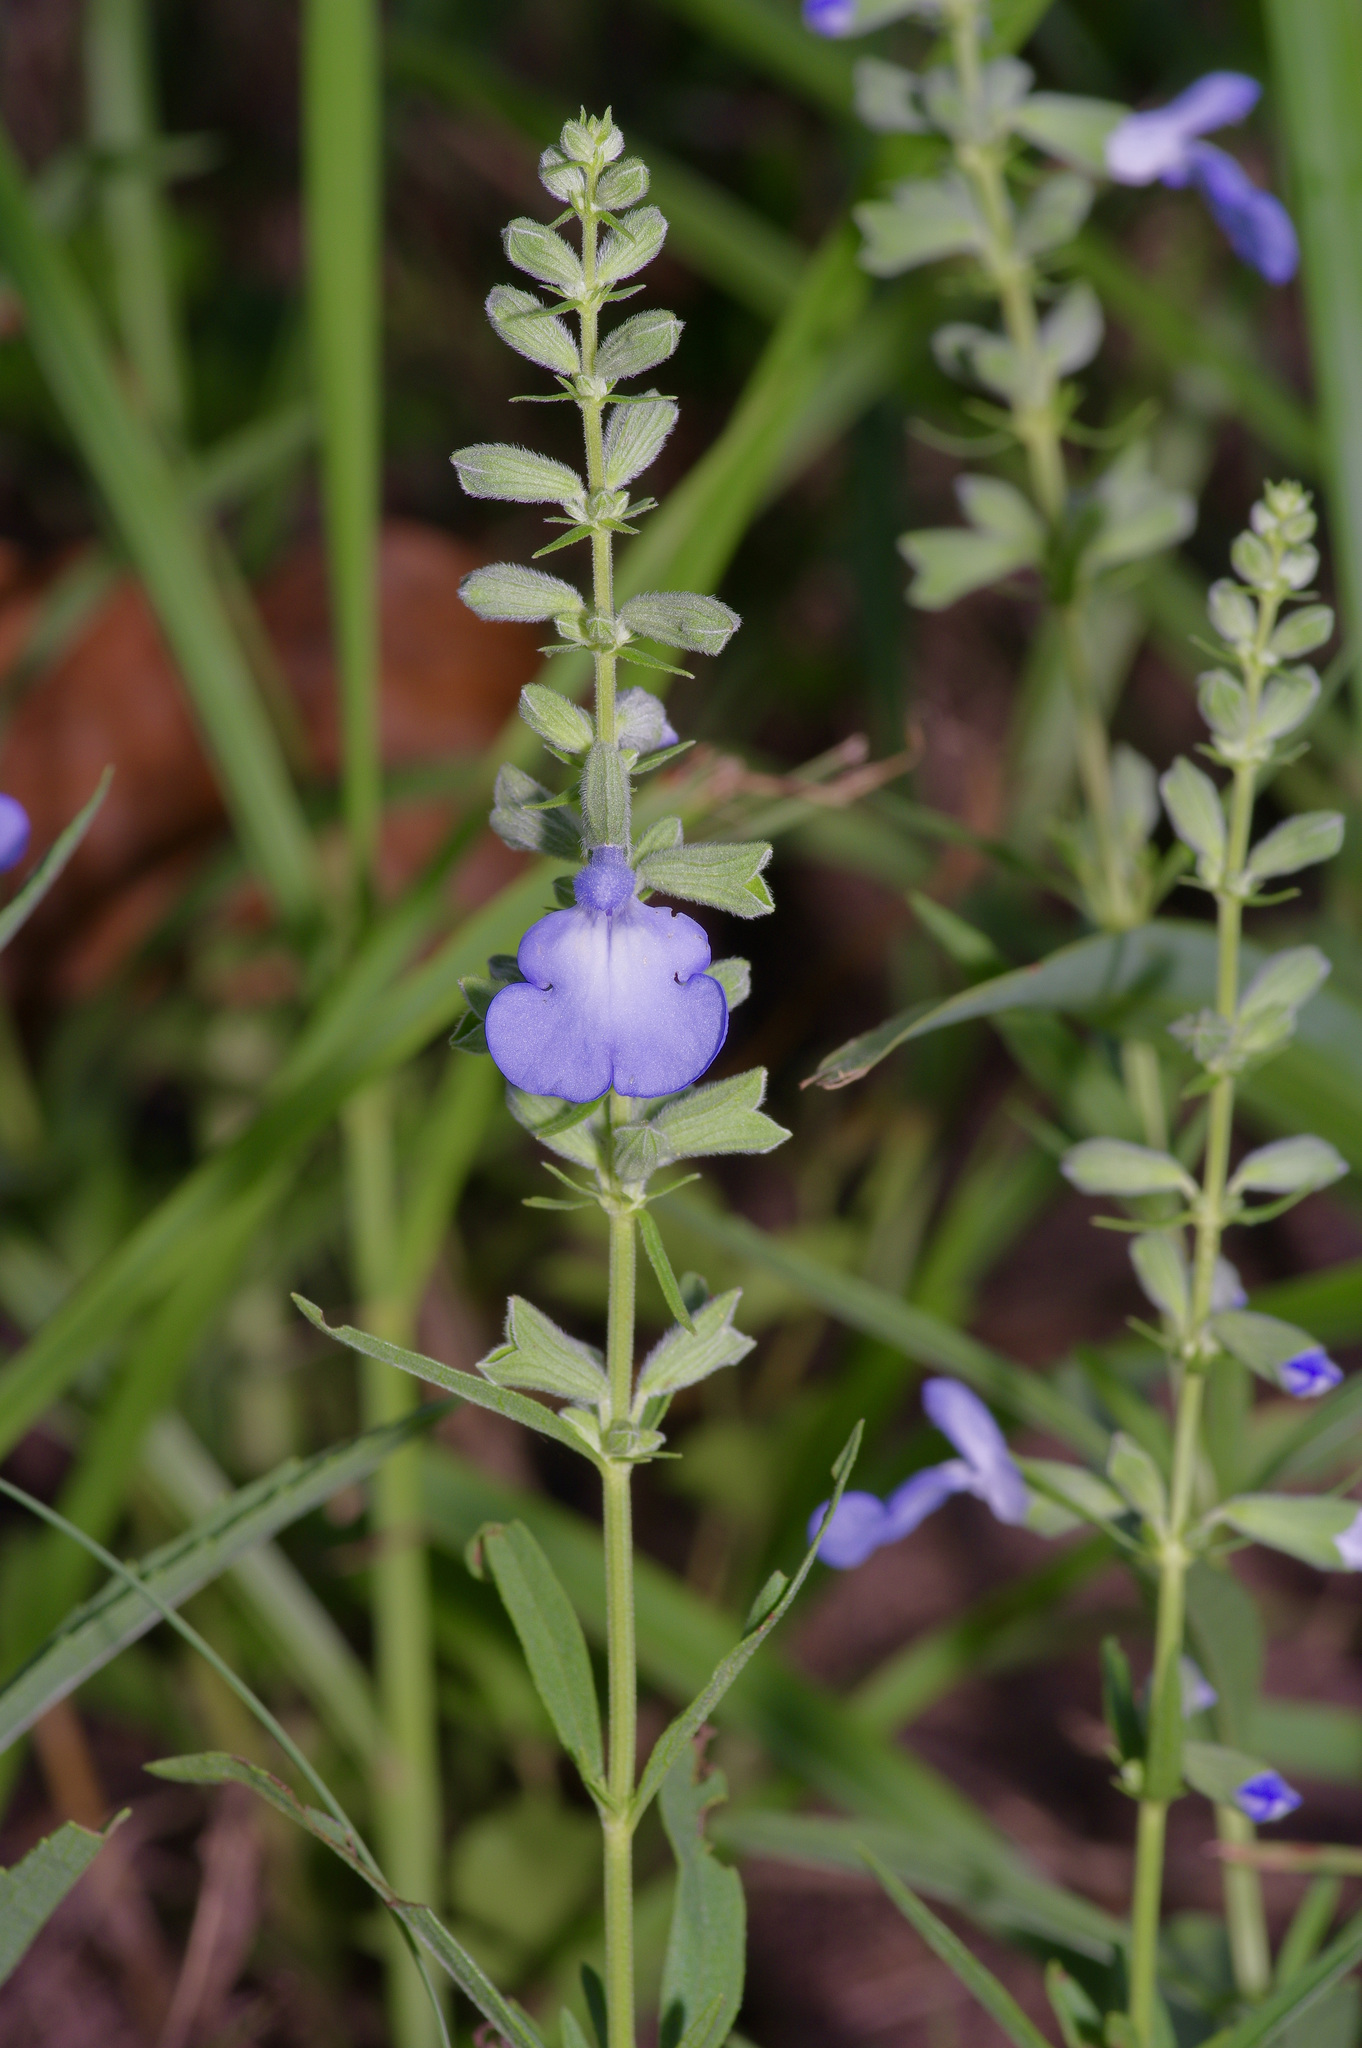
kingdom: Plantae
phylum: Tracheophyta
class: Magnoliopsida
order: Lamiales
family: Lamiaceae
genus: Salvia
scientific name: Salvia azurea
